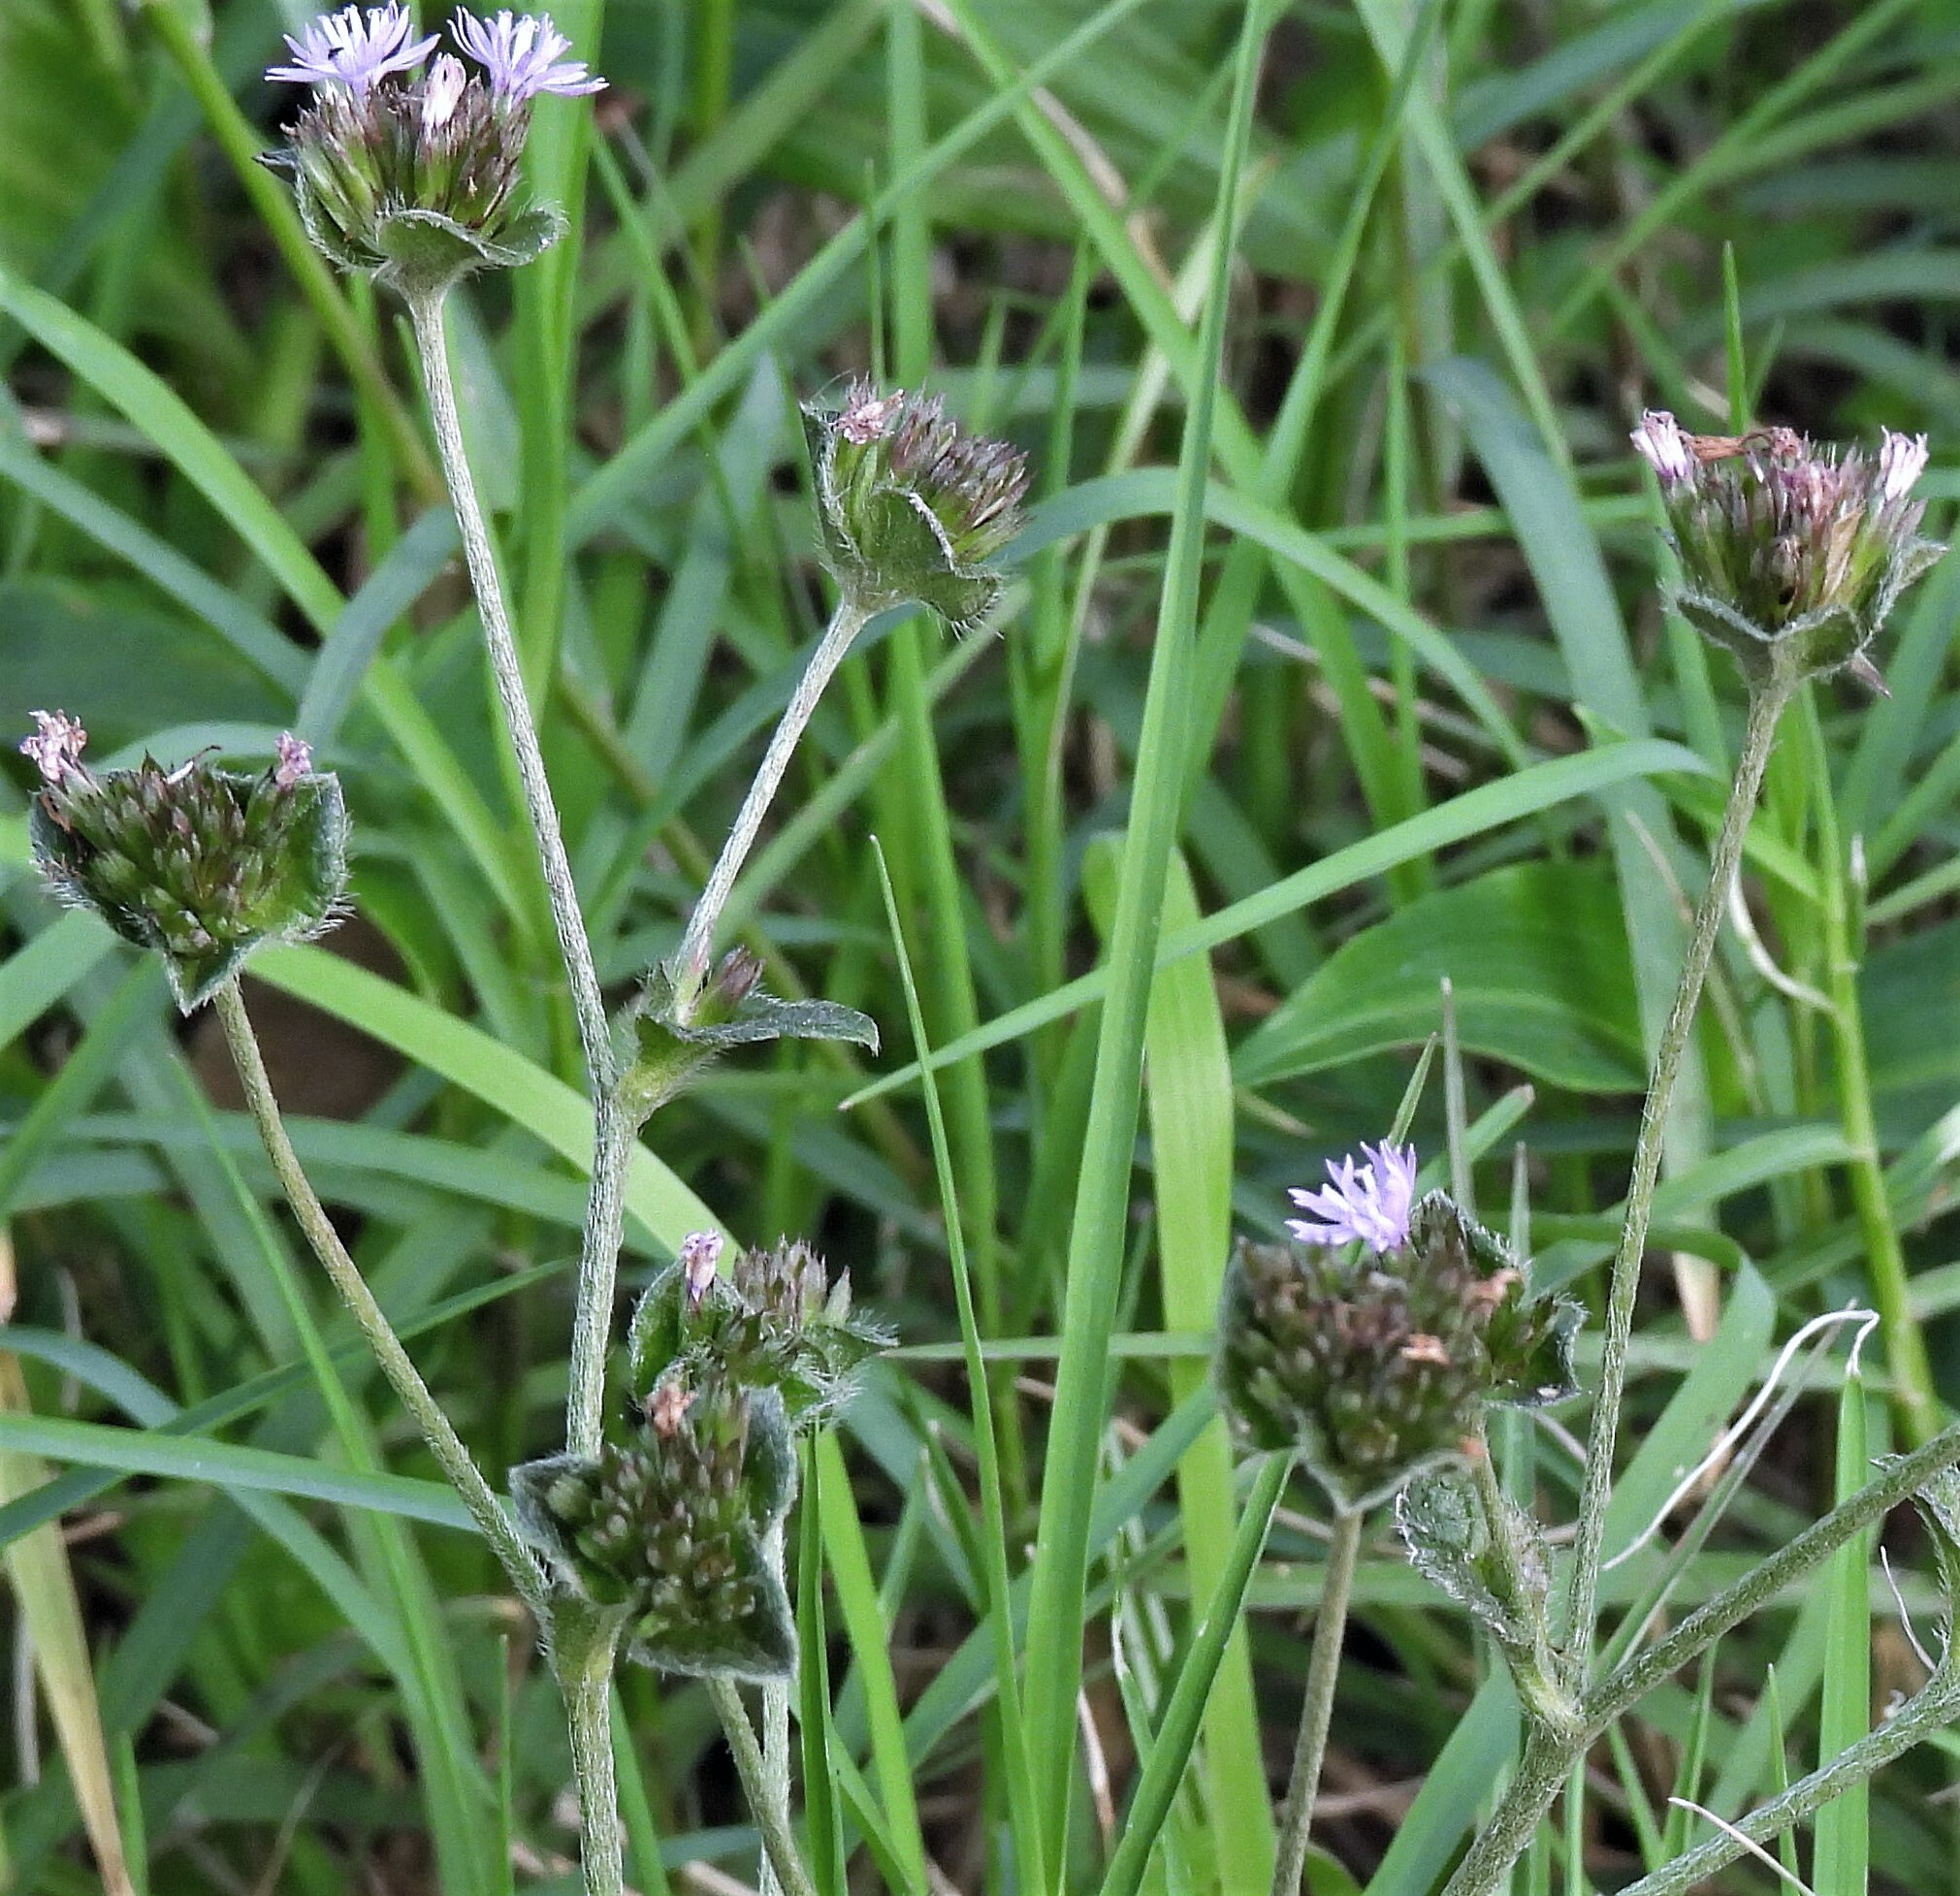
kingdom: Plantae
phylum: Tracheophyta
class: Magnoliopsida
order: Asterales
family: Asteraceae
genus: Elephantopus
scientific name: Elephantopus mollis
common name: Soft elephantsfoot
